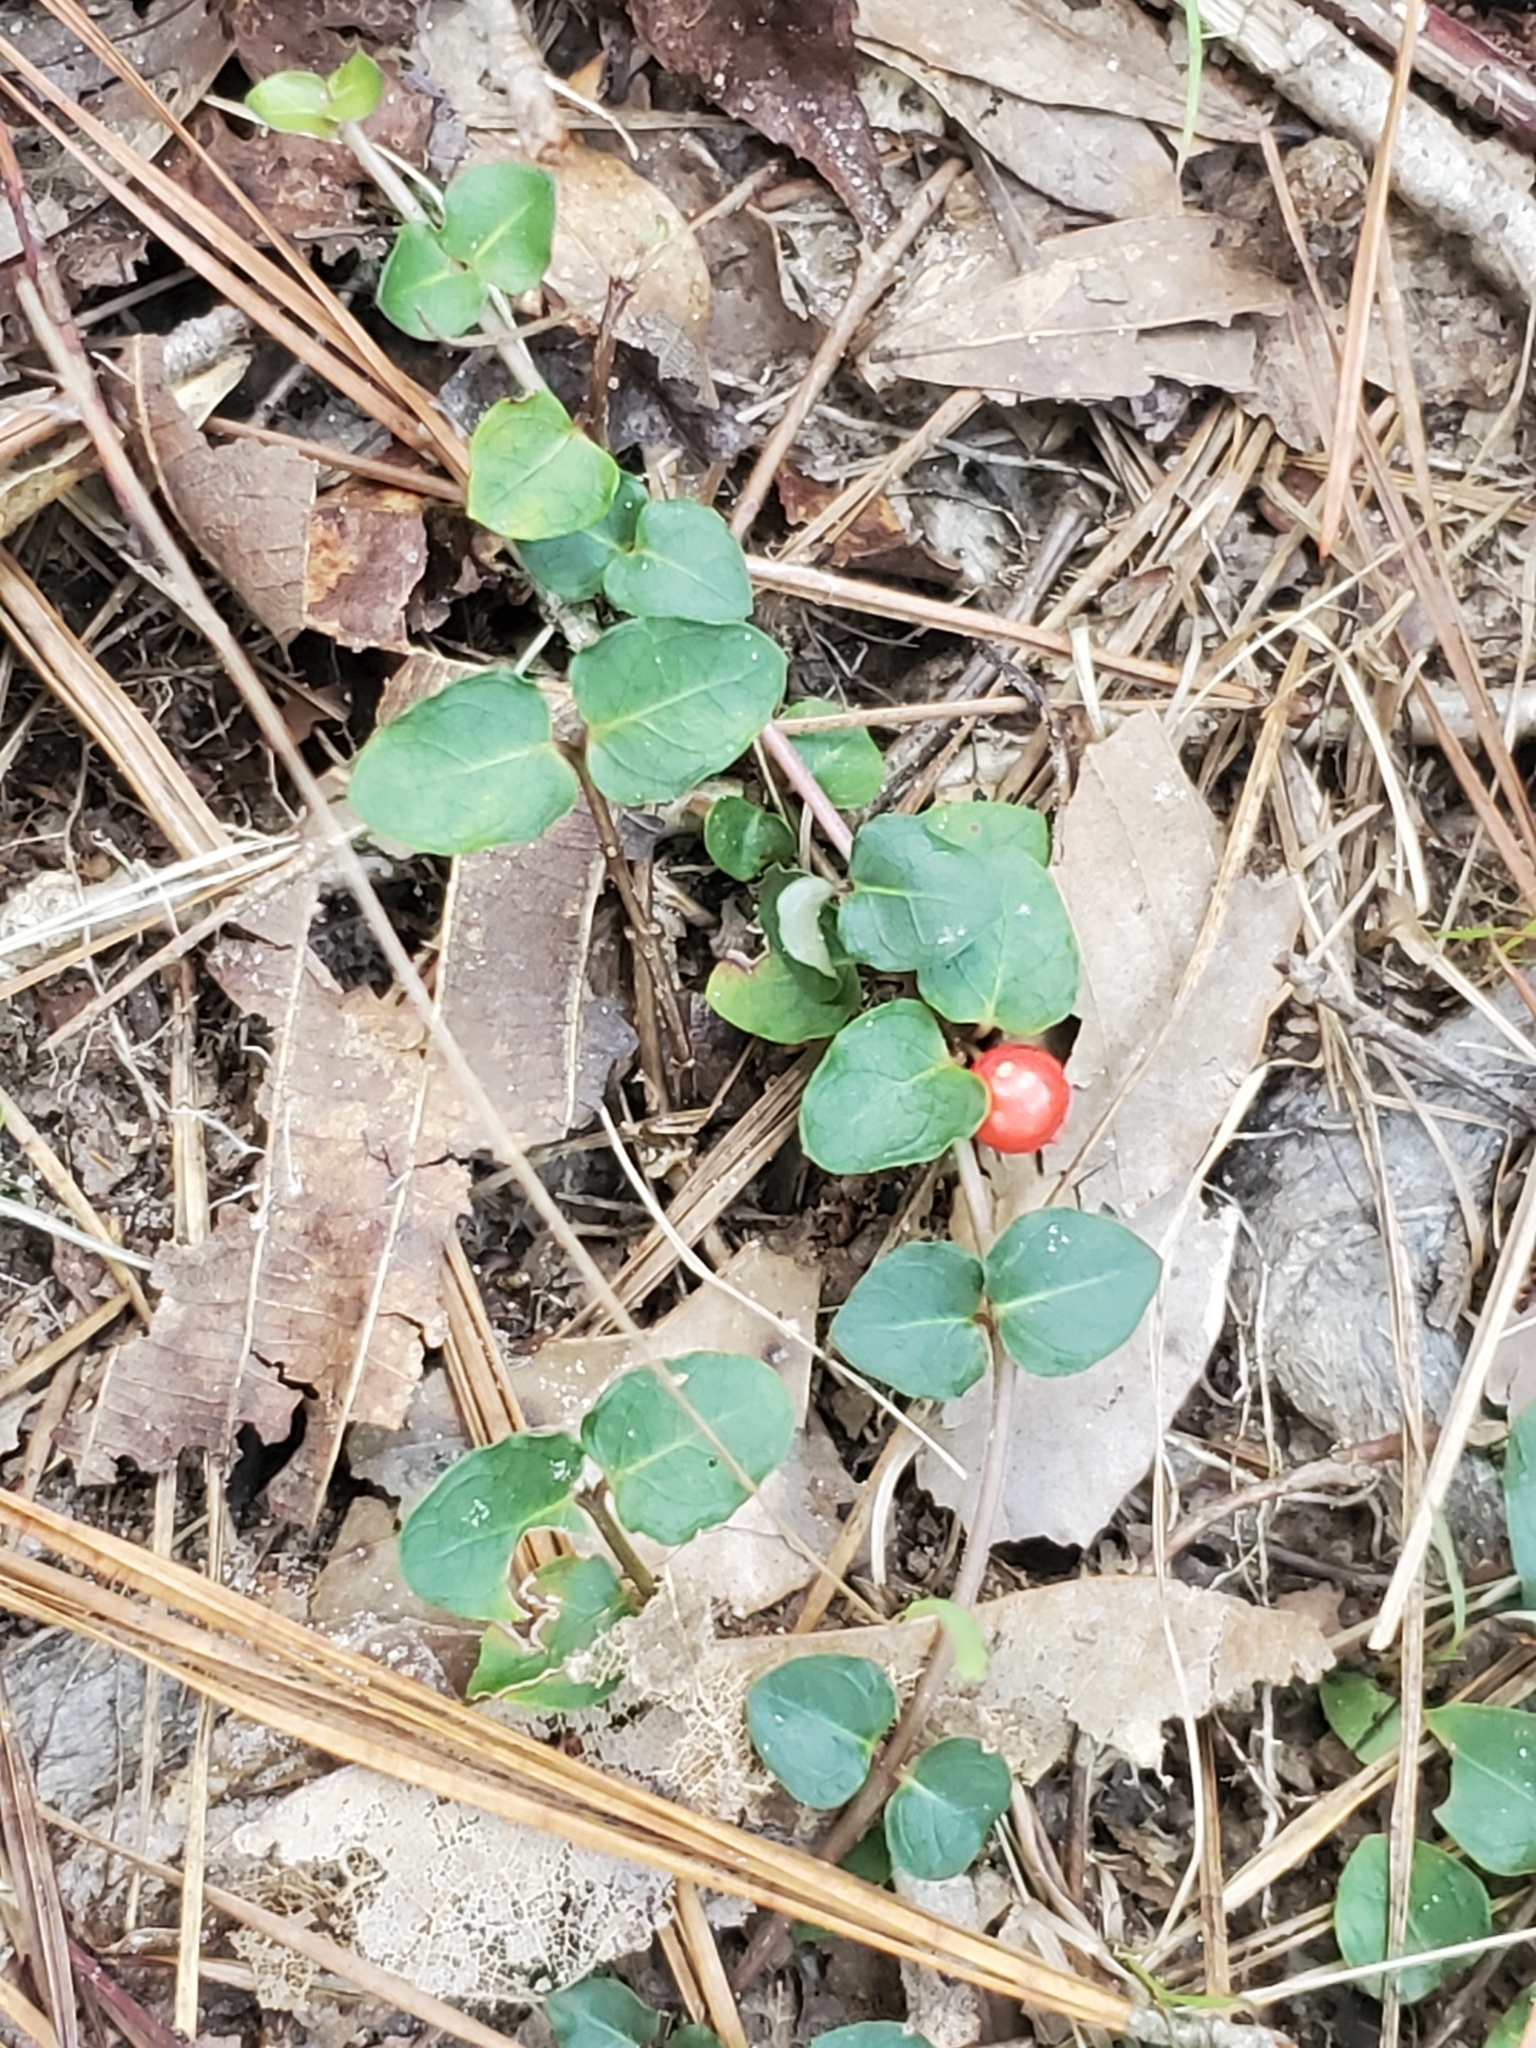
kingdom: Plantae
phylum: Tracheophyta
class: Magnoliopsida
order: Gentianales
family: Rubiaceae
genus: Mitchella
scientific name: Mitchella repens
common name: Partridge-berry
